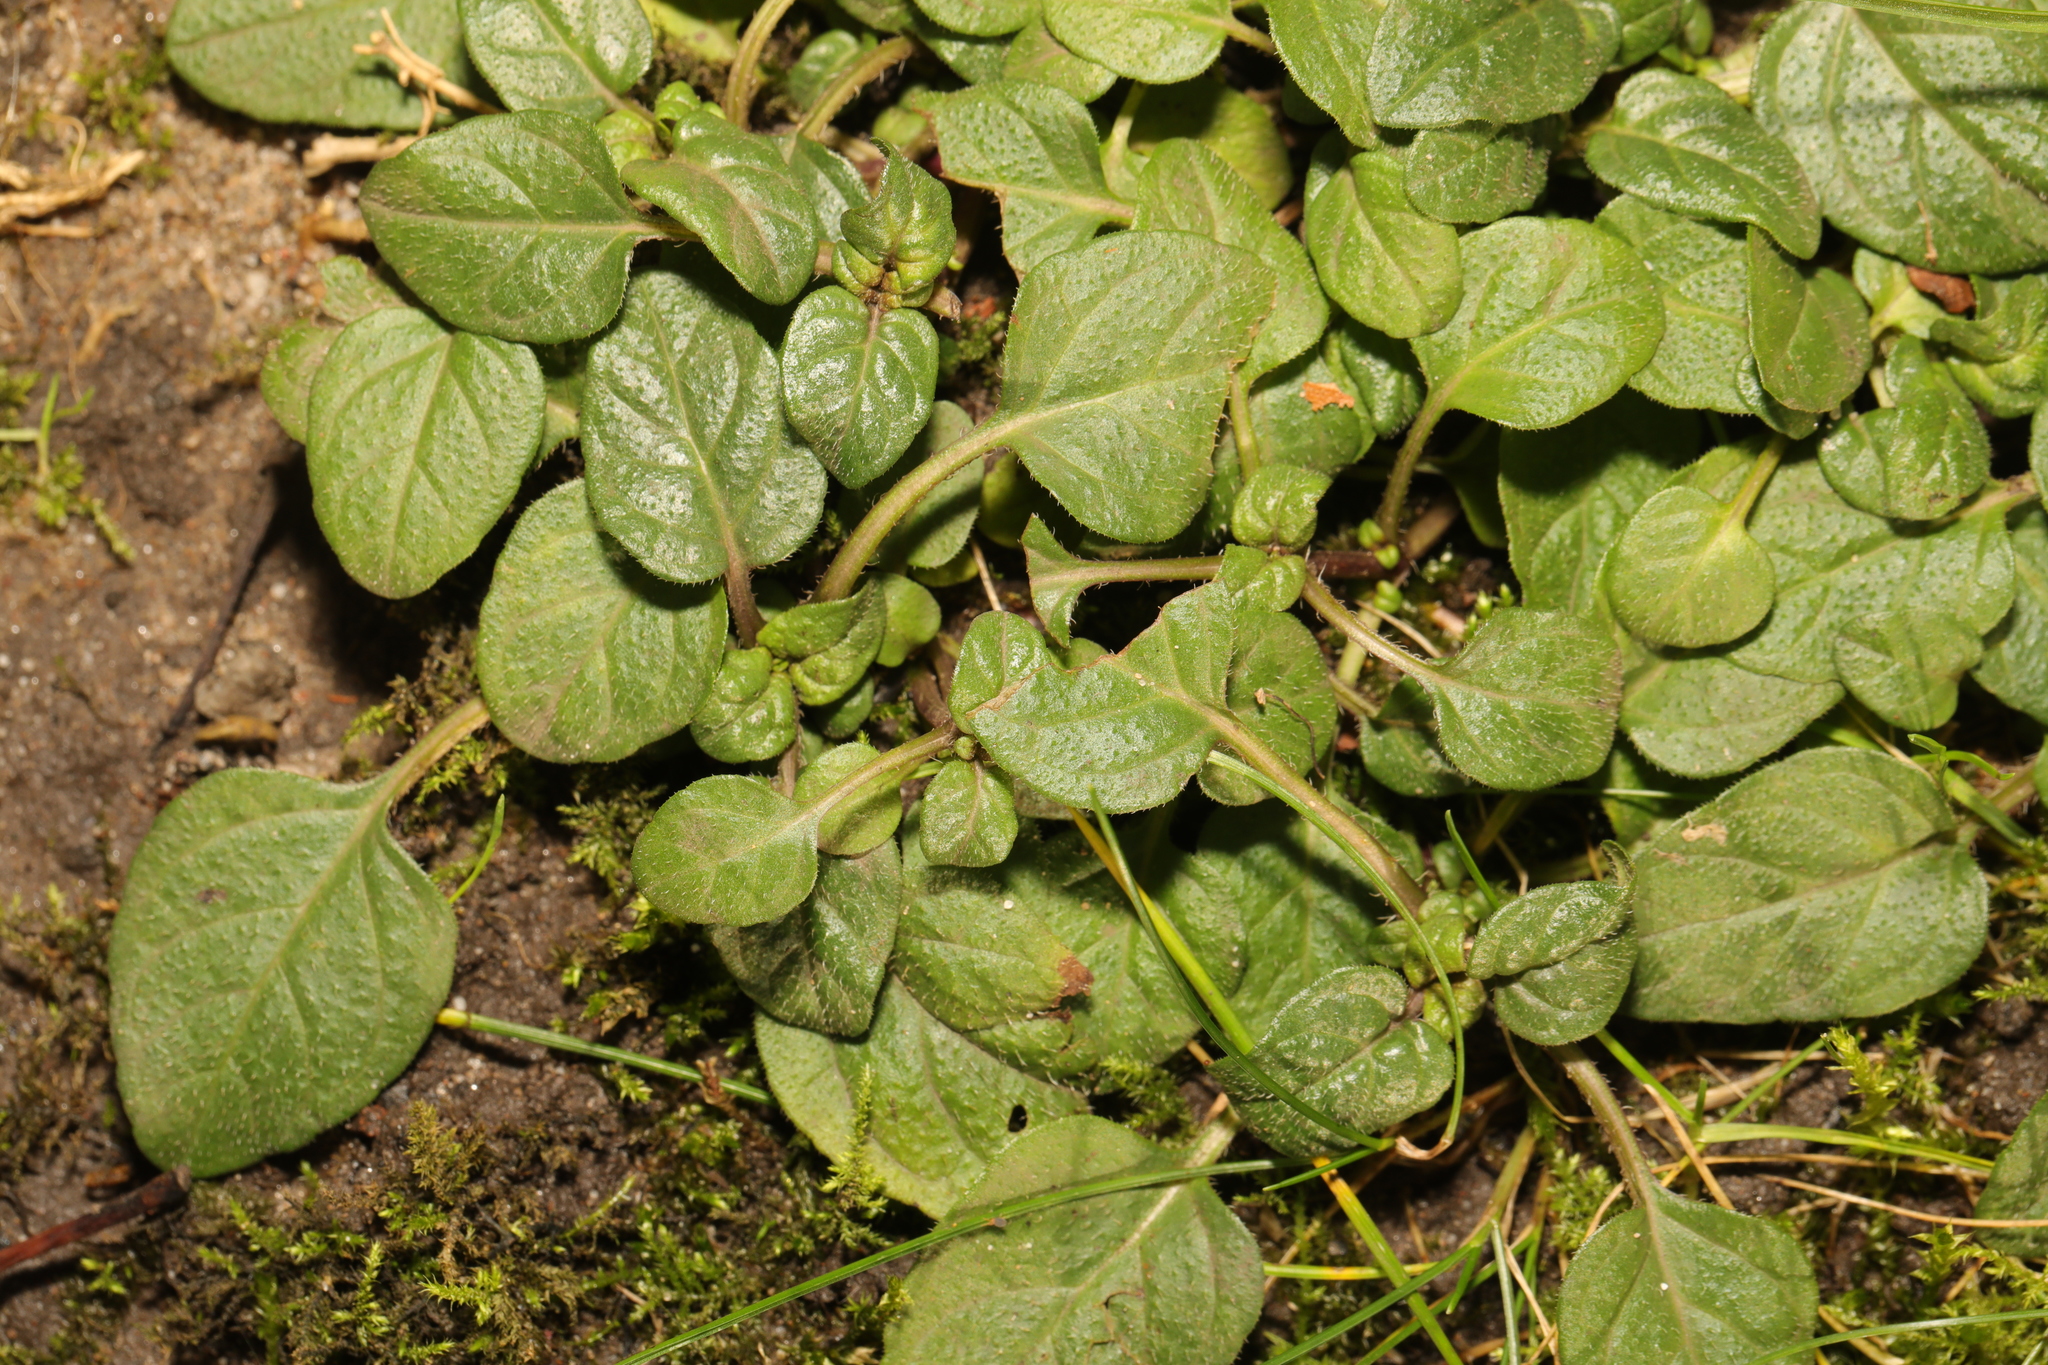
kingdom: Plantae
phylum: Tracheophyta
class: Magnoliopsida
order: Lamiales
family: Lamiaceae
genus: Prunella
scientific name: Prunella vulgaris
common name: Heal-all
